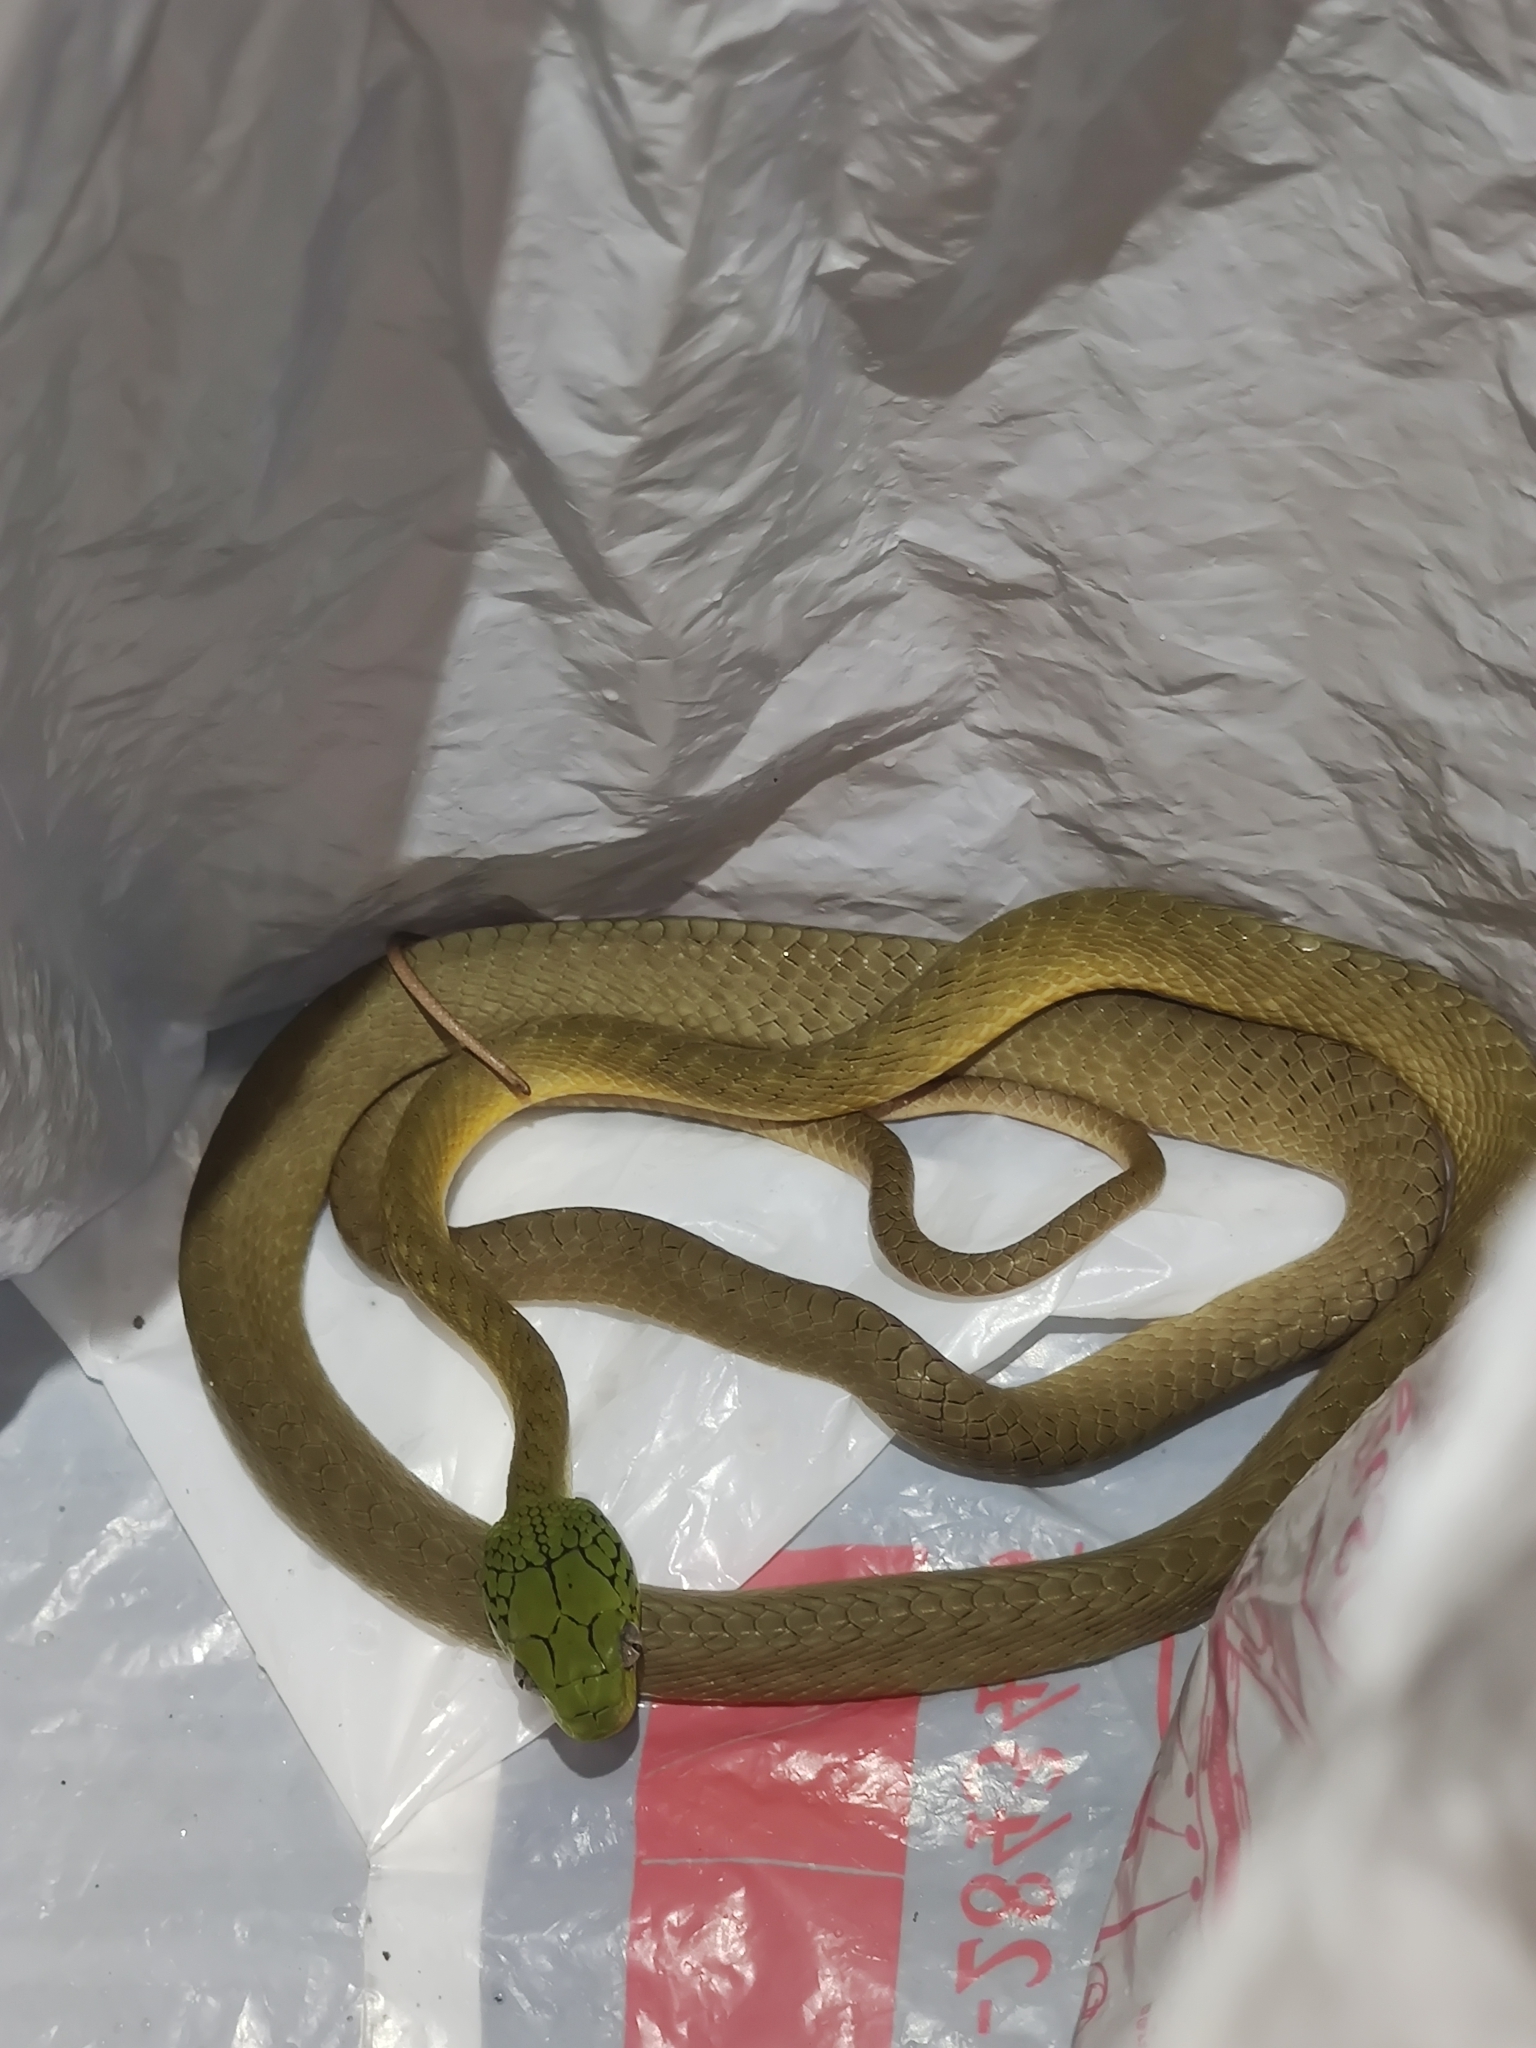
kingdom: Animalia
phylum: Chordata
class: Squamata
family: Colubridae
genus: Boiga
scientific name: Boiga cyanea
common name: Green cat snake
